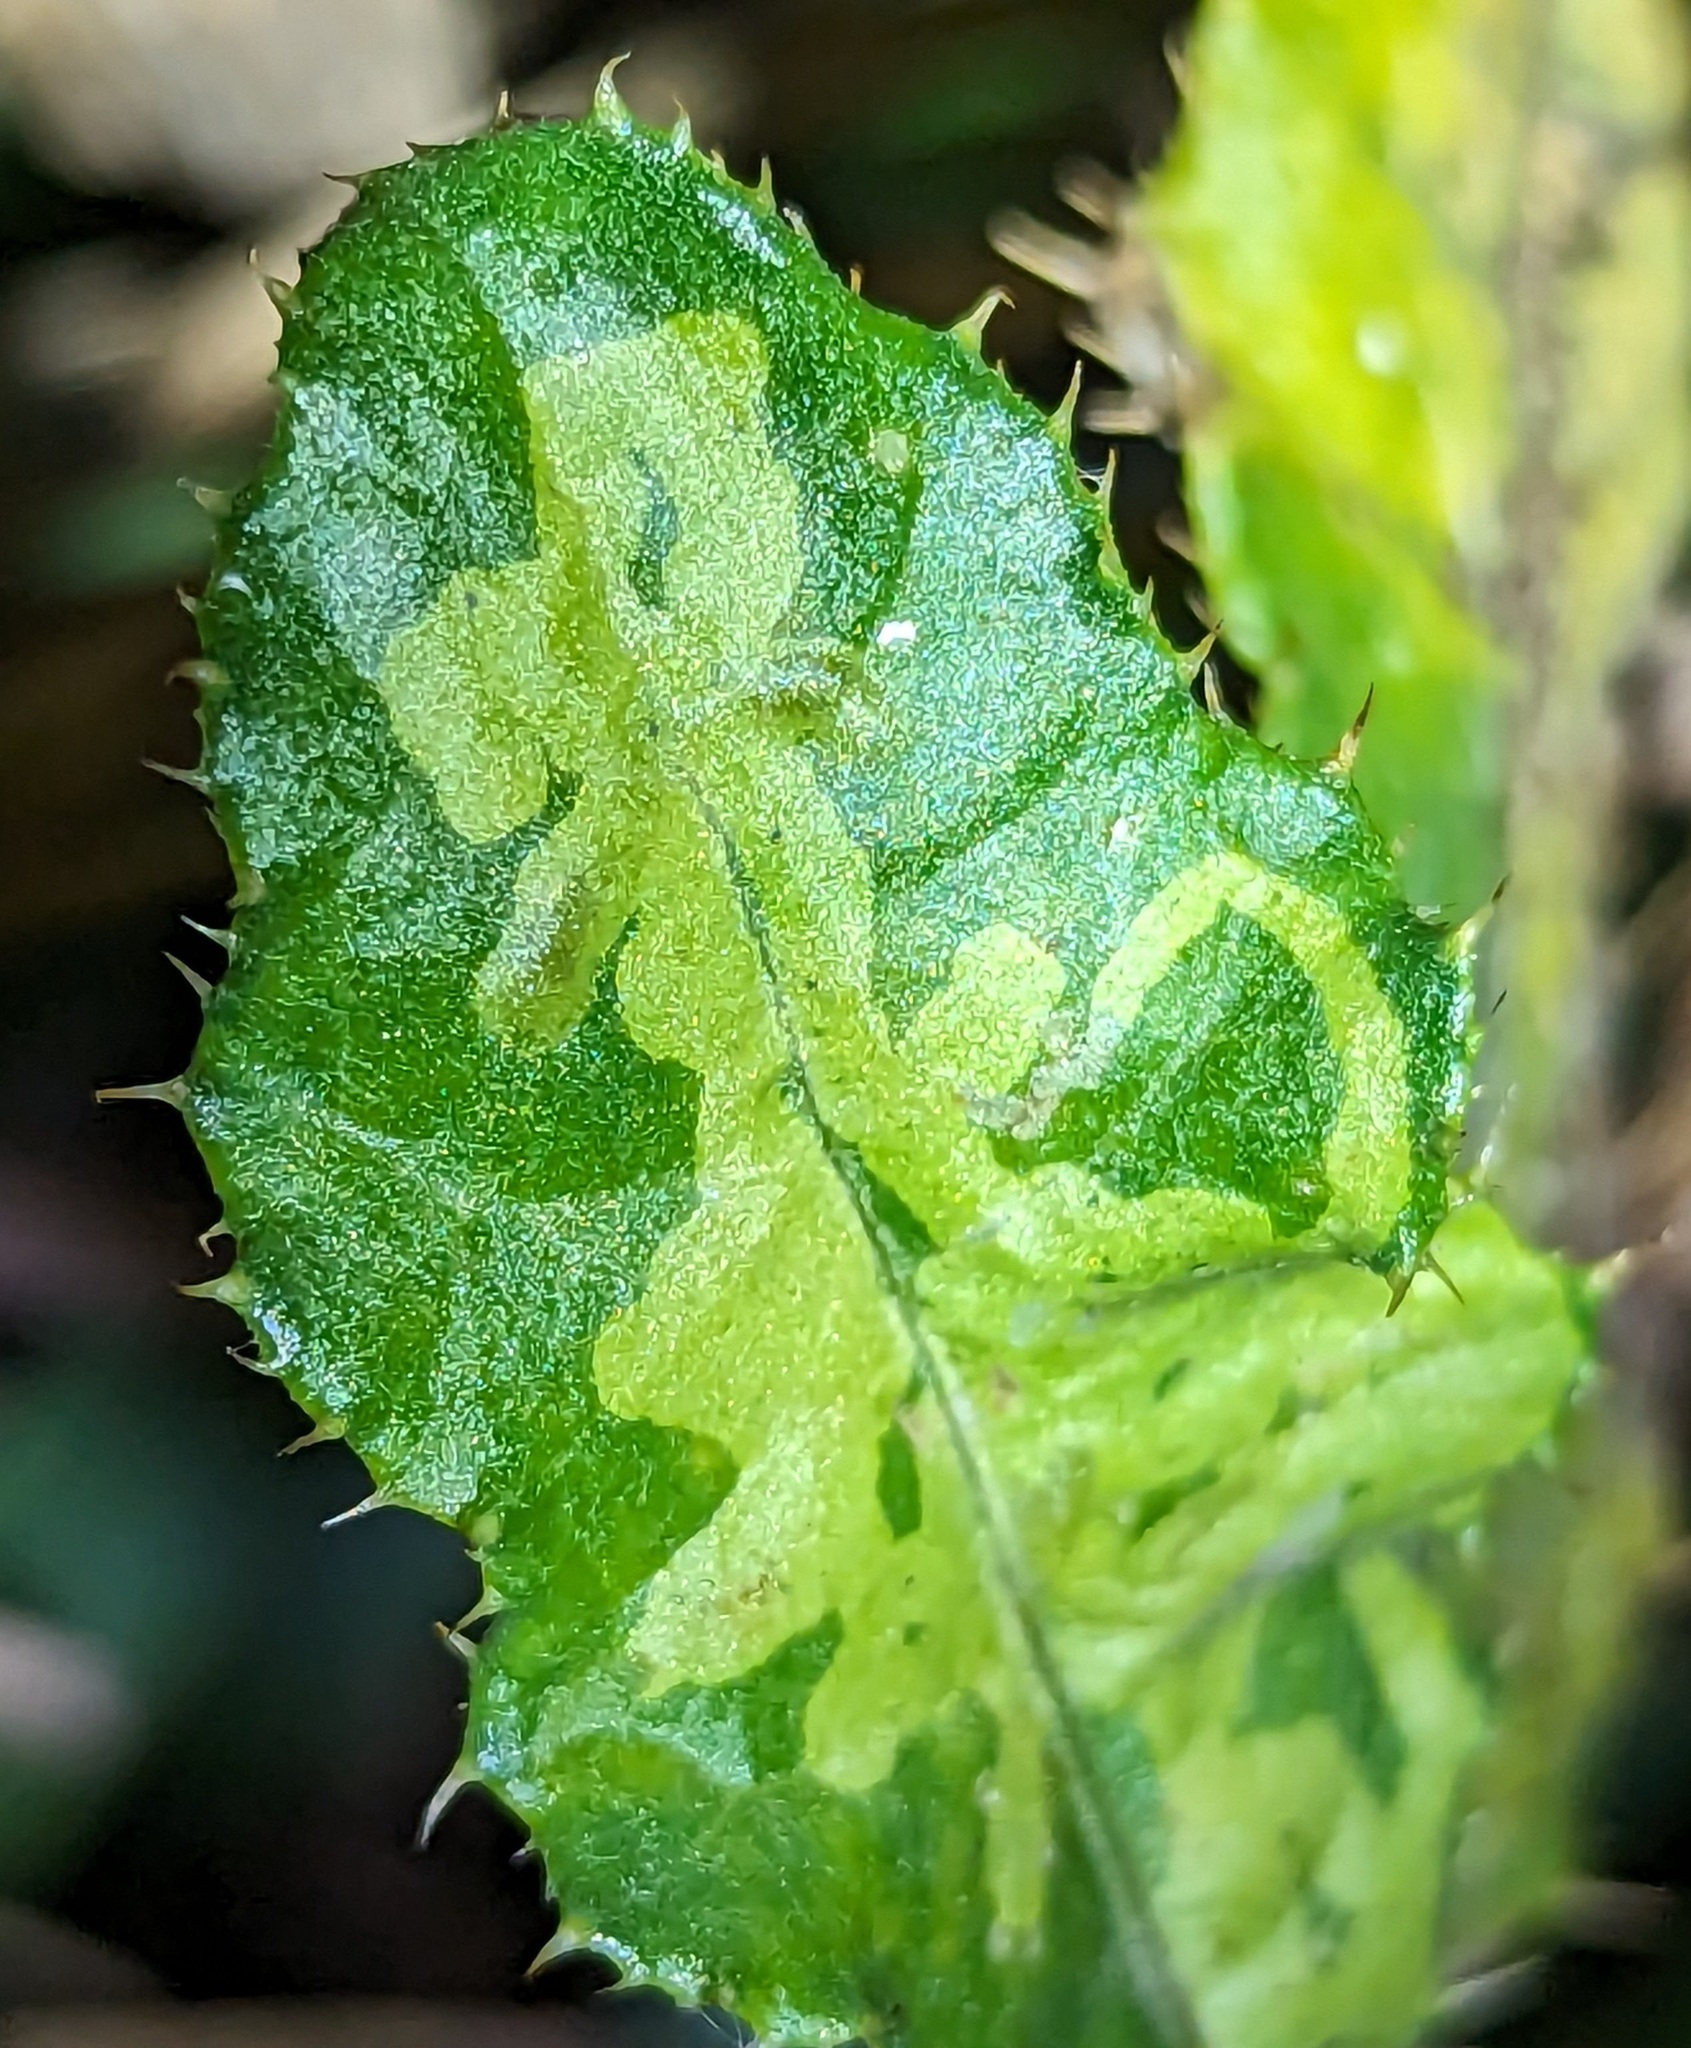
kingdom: Animalia
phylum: Arthropoda
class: Insecta
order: Diptera
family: Agromyzidae
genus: Phytomyza
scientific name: Phytomyza spinaciae
